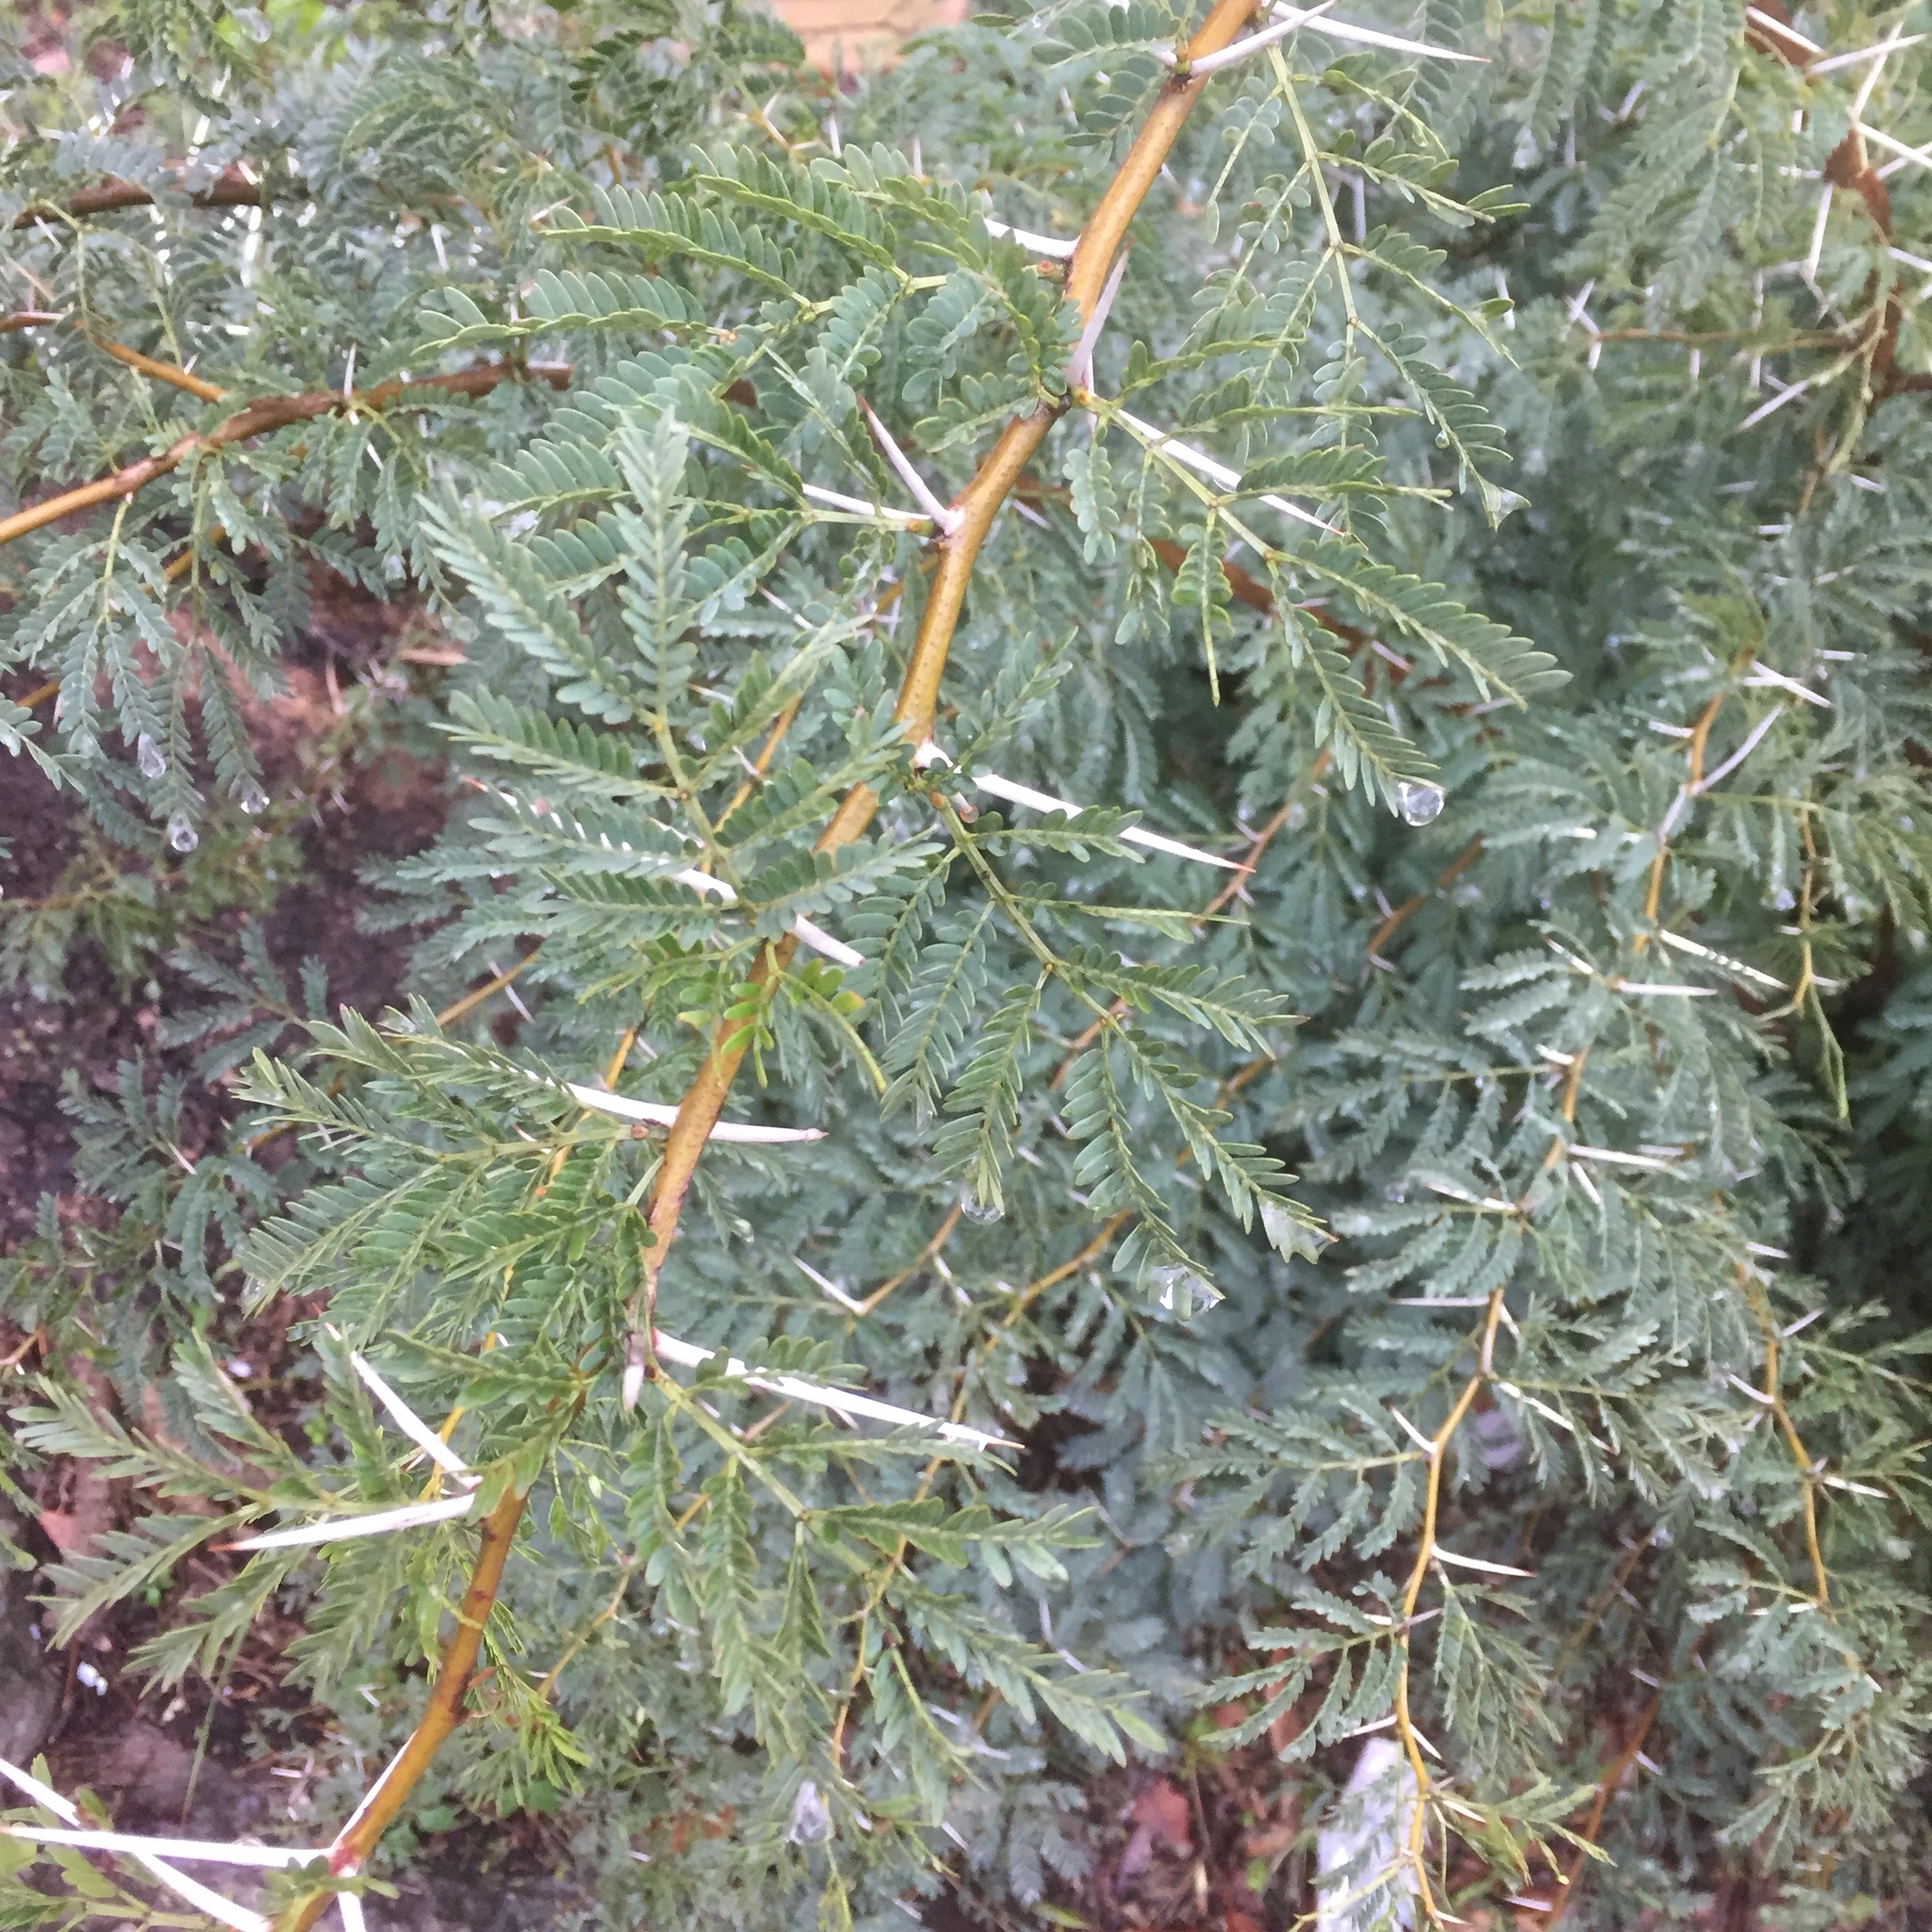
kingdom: Plantae
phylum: Tracheophyta
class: Magnoliopsida
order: Fabales
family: Fabaceae
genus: Vachellia
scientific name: Vachellia karroo
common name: Sweet thorn
